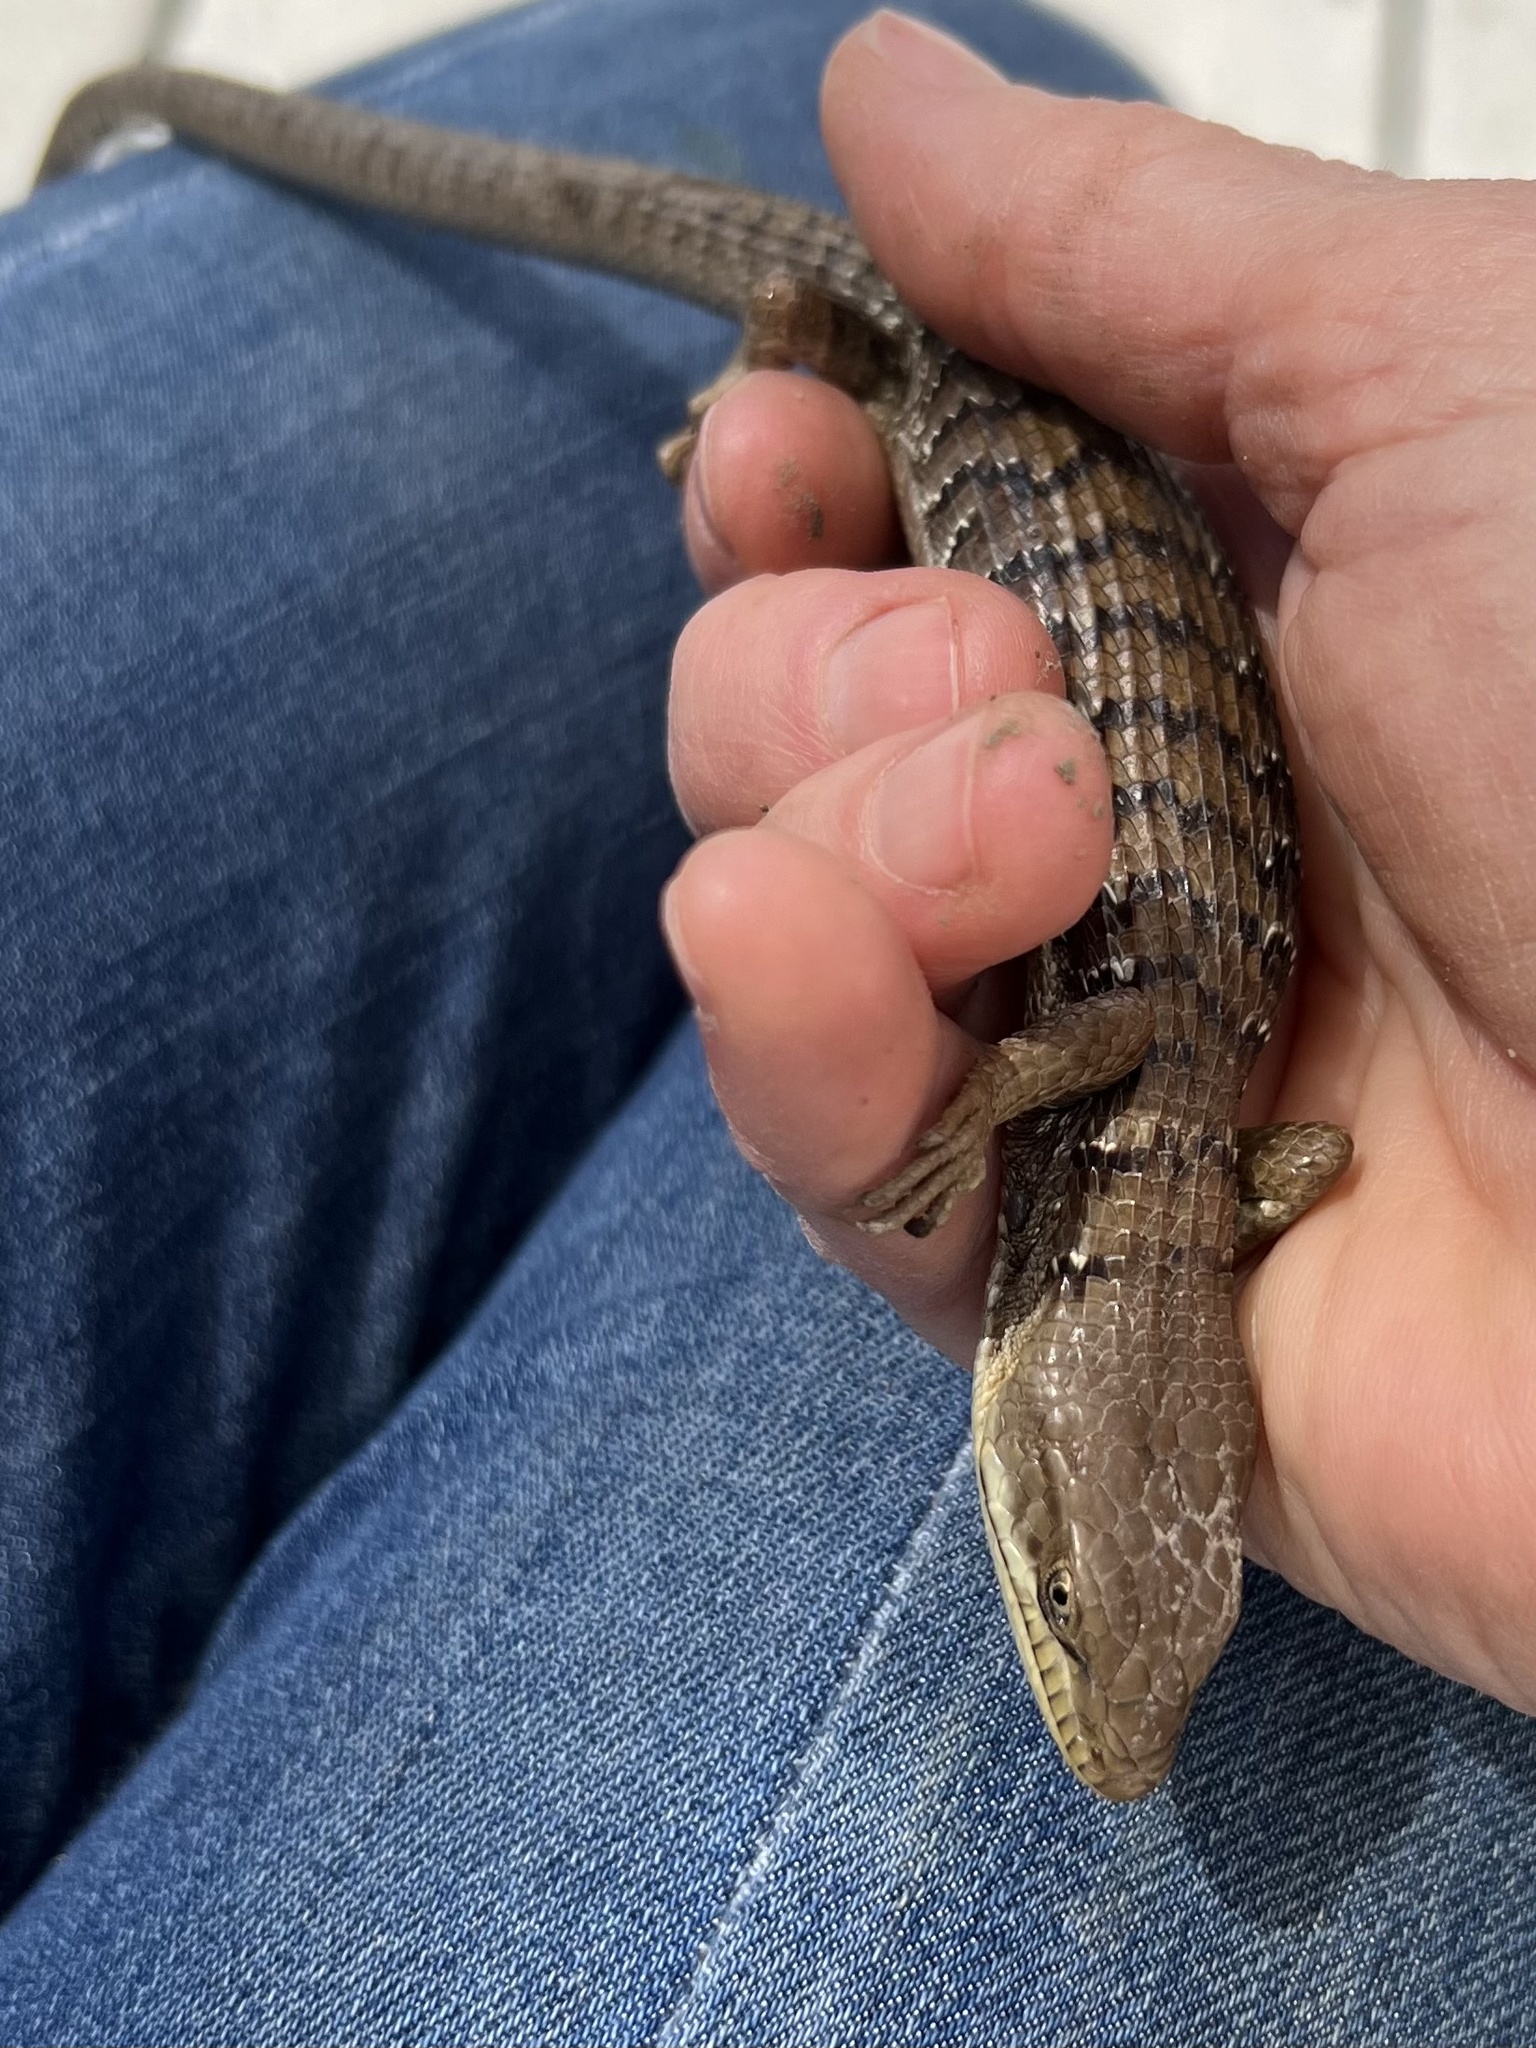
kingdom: Animalia
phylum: Chordata
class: Squamata
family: Anguidae
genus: Elgaria
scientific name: Elgaria multicarinata
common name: Southern alligator lizard
